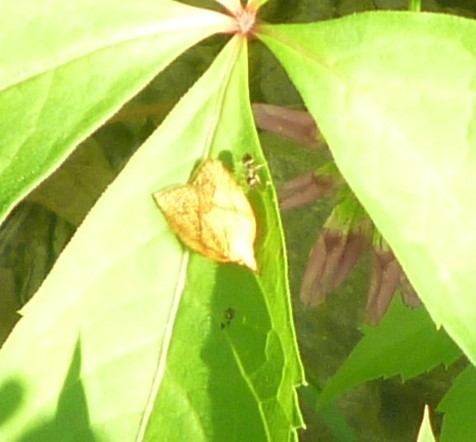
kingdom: Animalia
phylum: Arthropoda
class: Insecta
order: Lepidoptera
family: Tortricidae
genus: Cenopis
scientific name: Cenopis reticulatana
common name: Reticulated fruitworm moth
